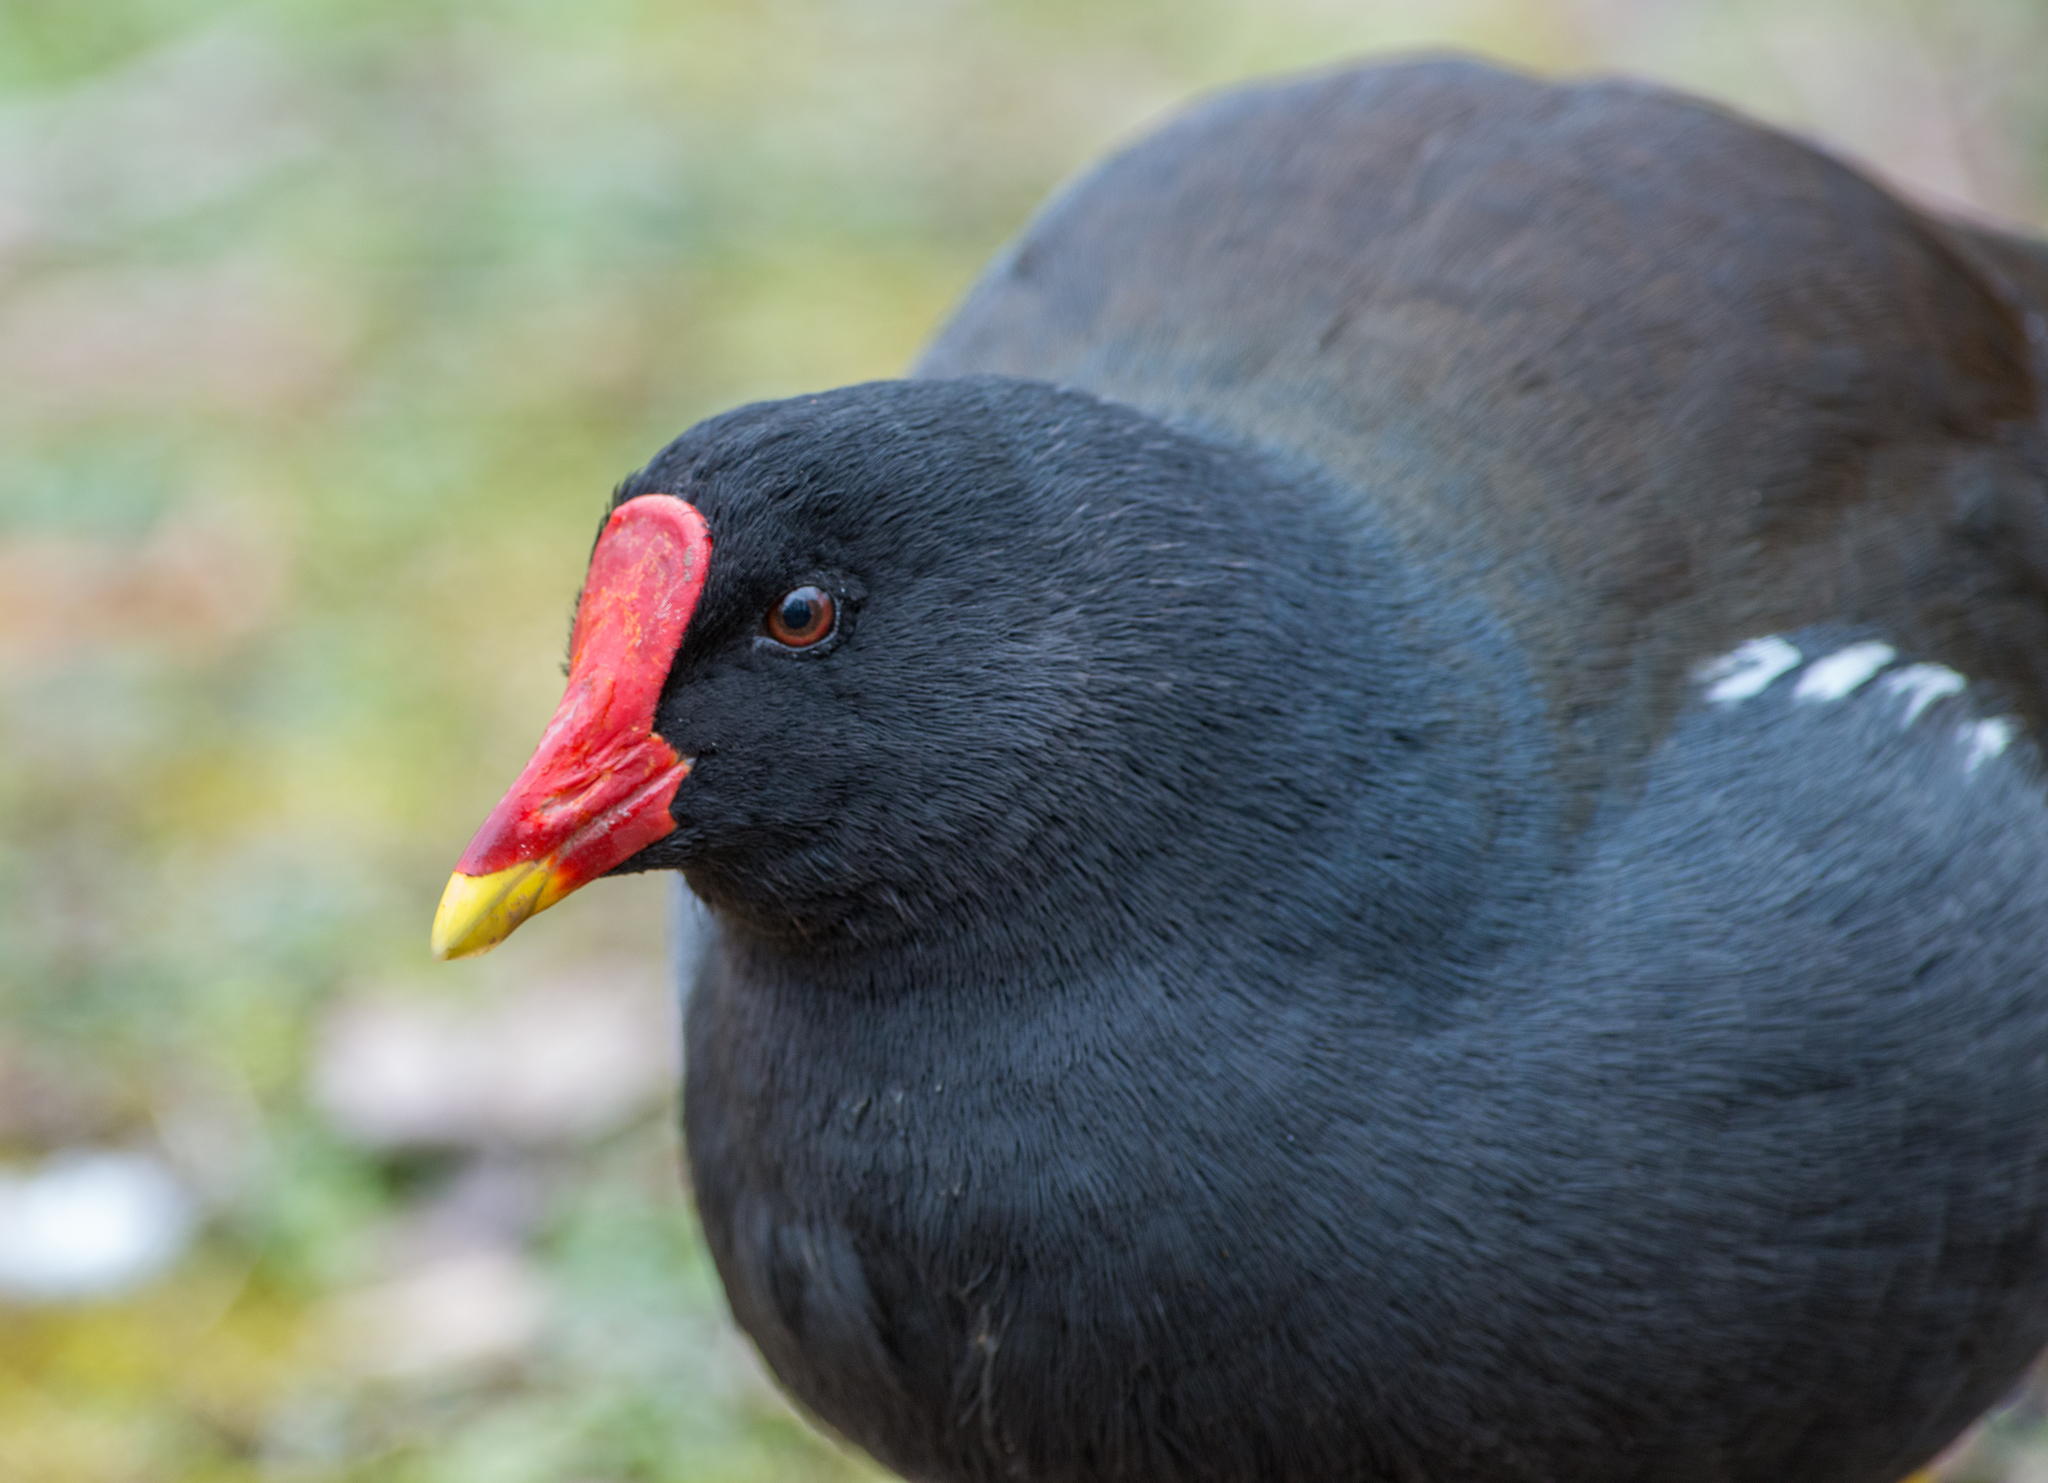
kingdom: Animalia
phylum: Chordata
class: Aves
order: Gruiformes
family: Rallidae
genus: Gallinula
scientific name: Gallinula chloropus
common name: Common moorhen
